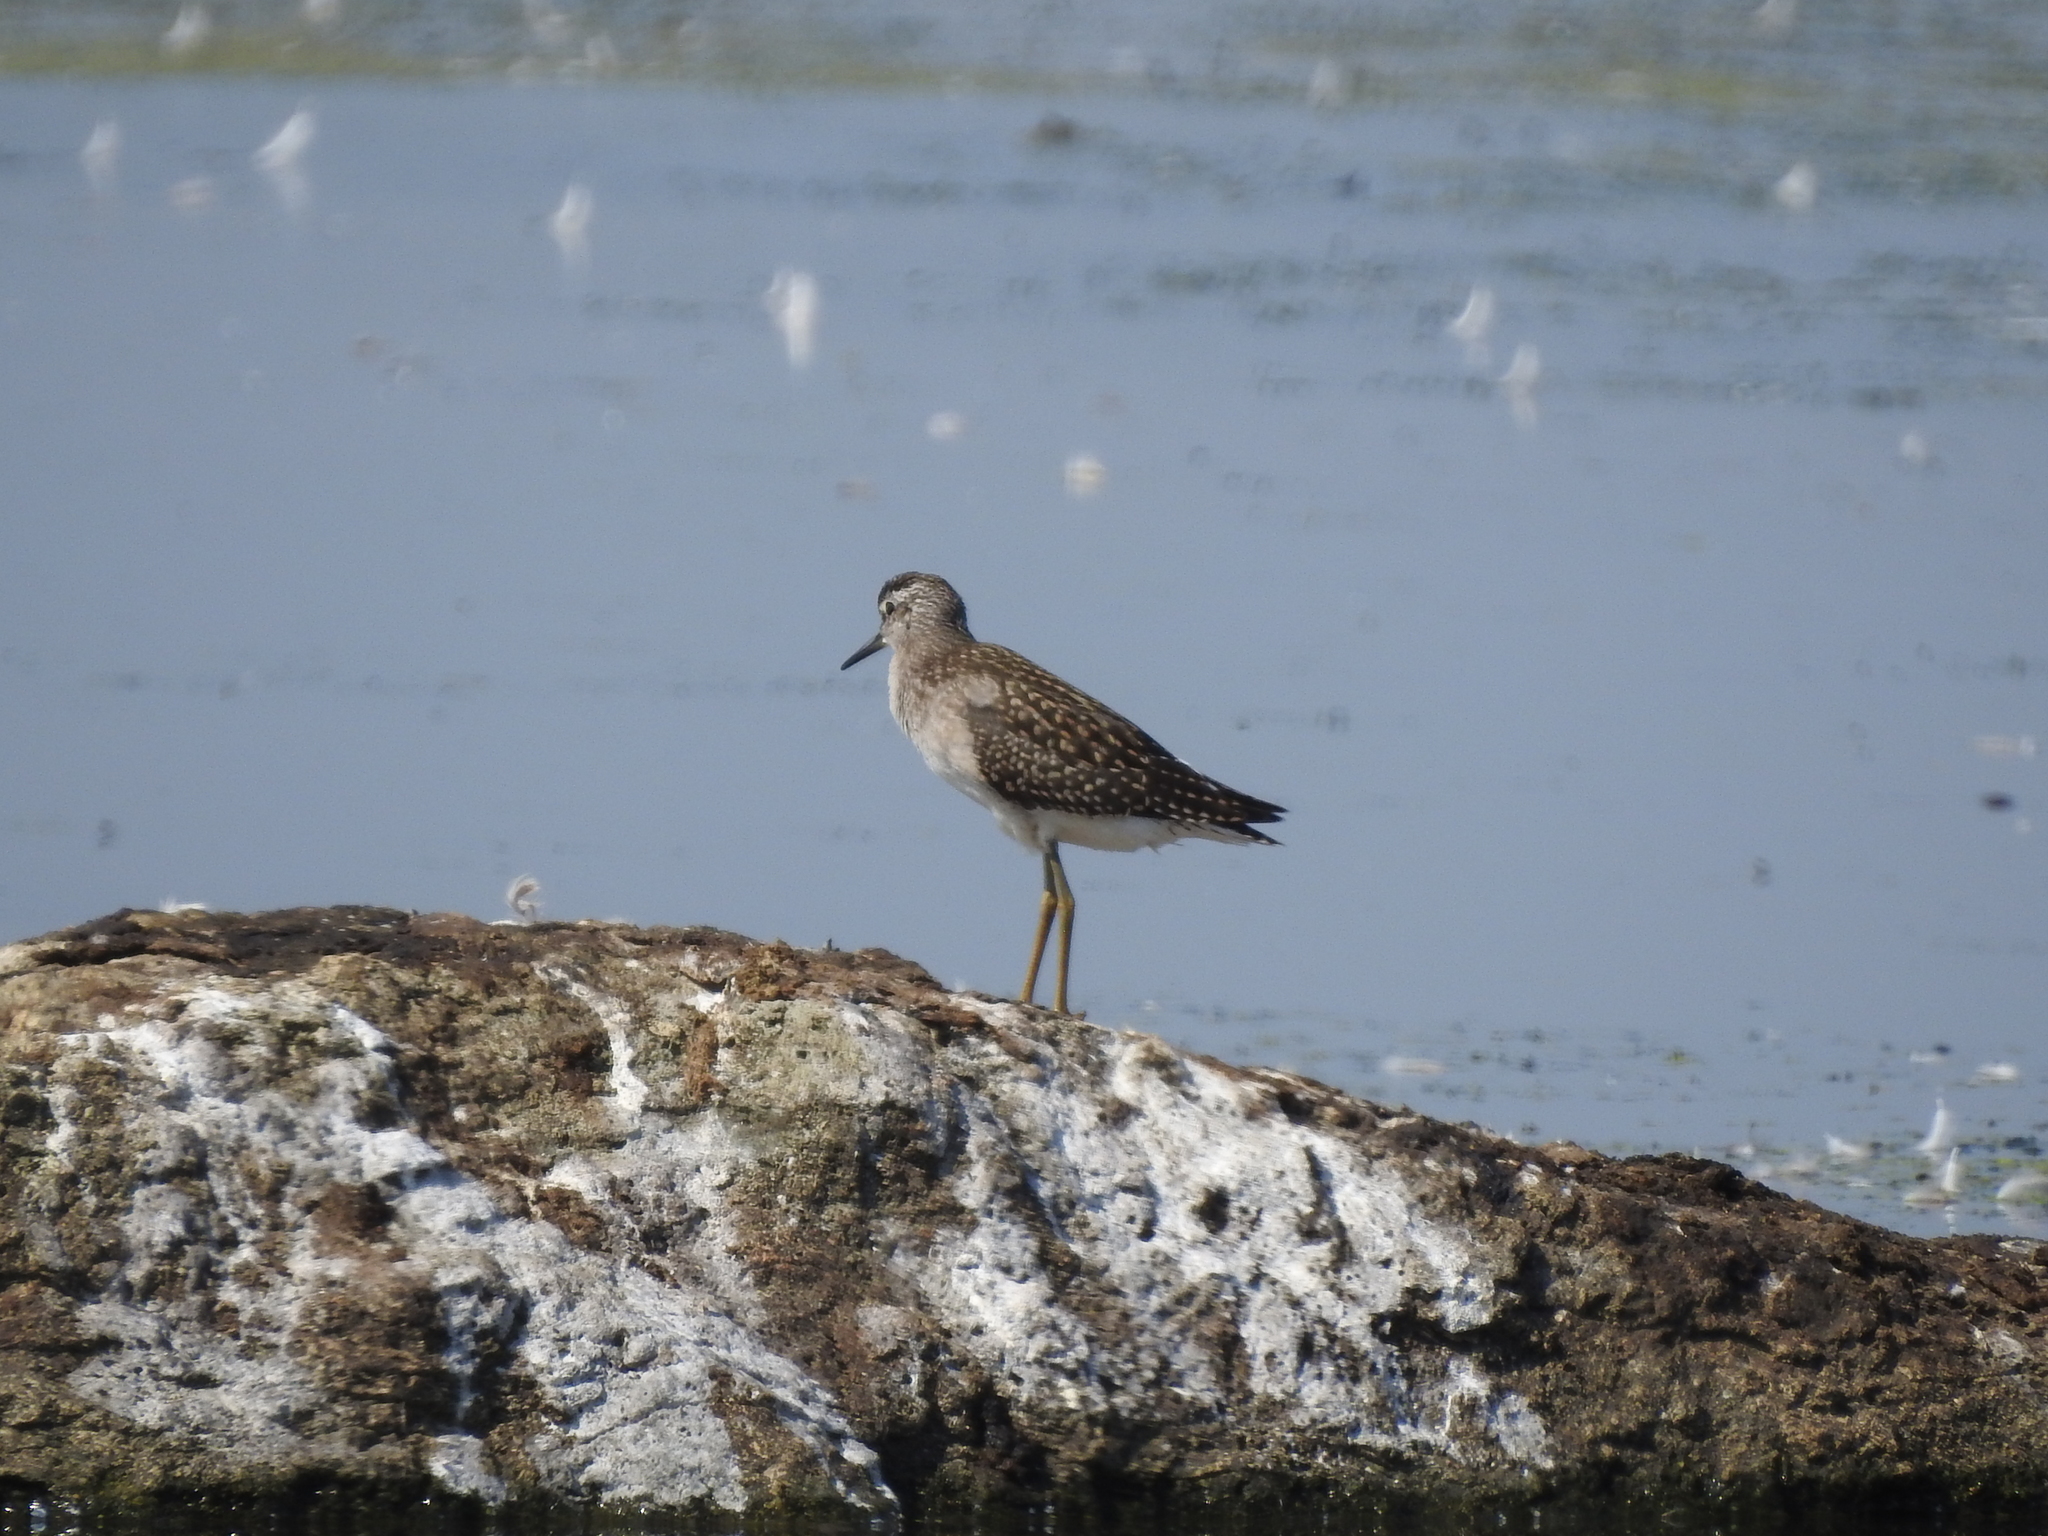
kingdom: Animalia
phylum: Chordata
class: Aves
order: Charadriiformes
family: Scolopacidae
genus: Tringa
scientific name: Tringa glareola
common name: Wood sandpiper
